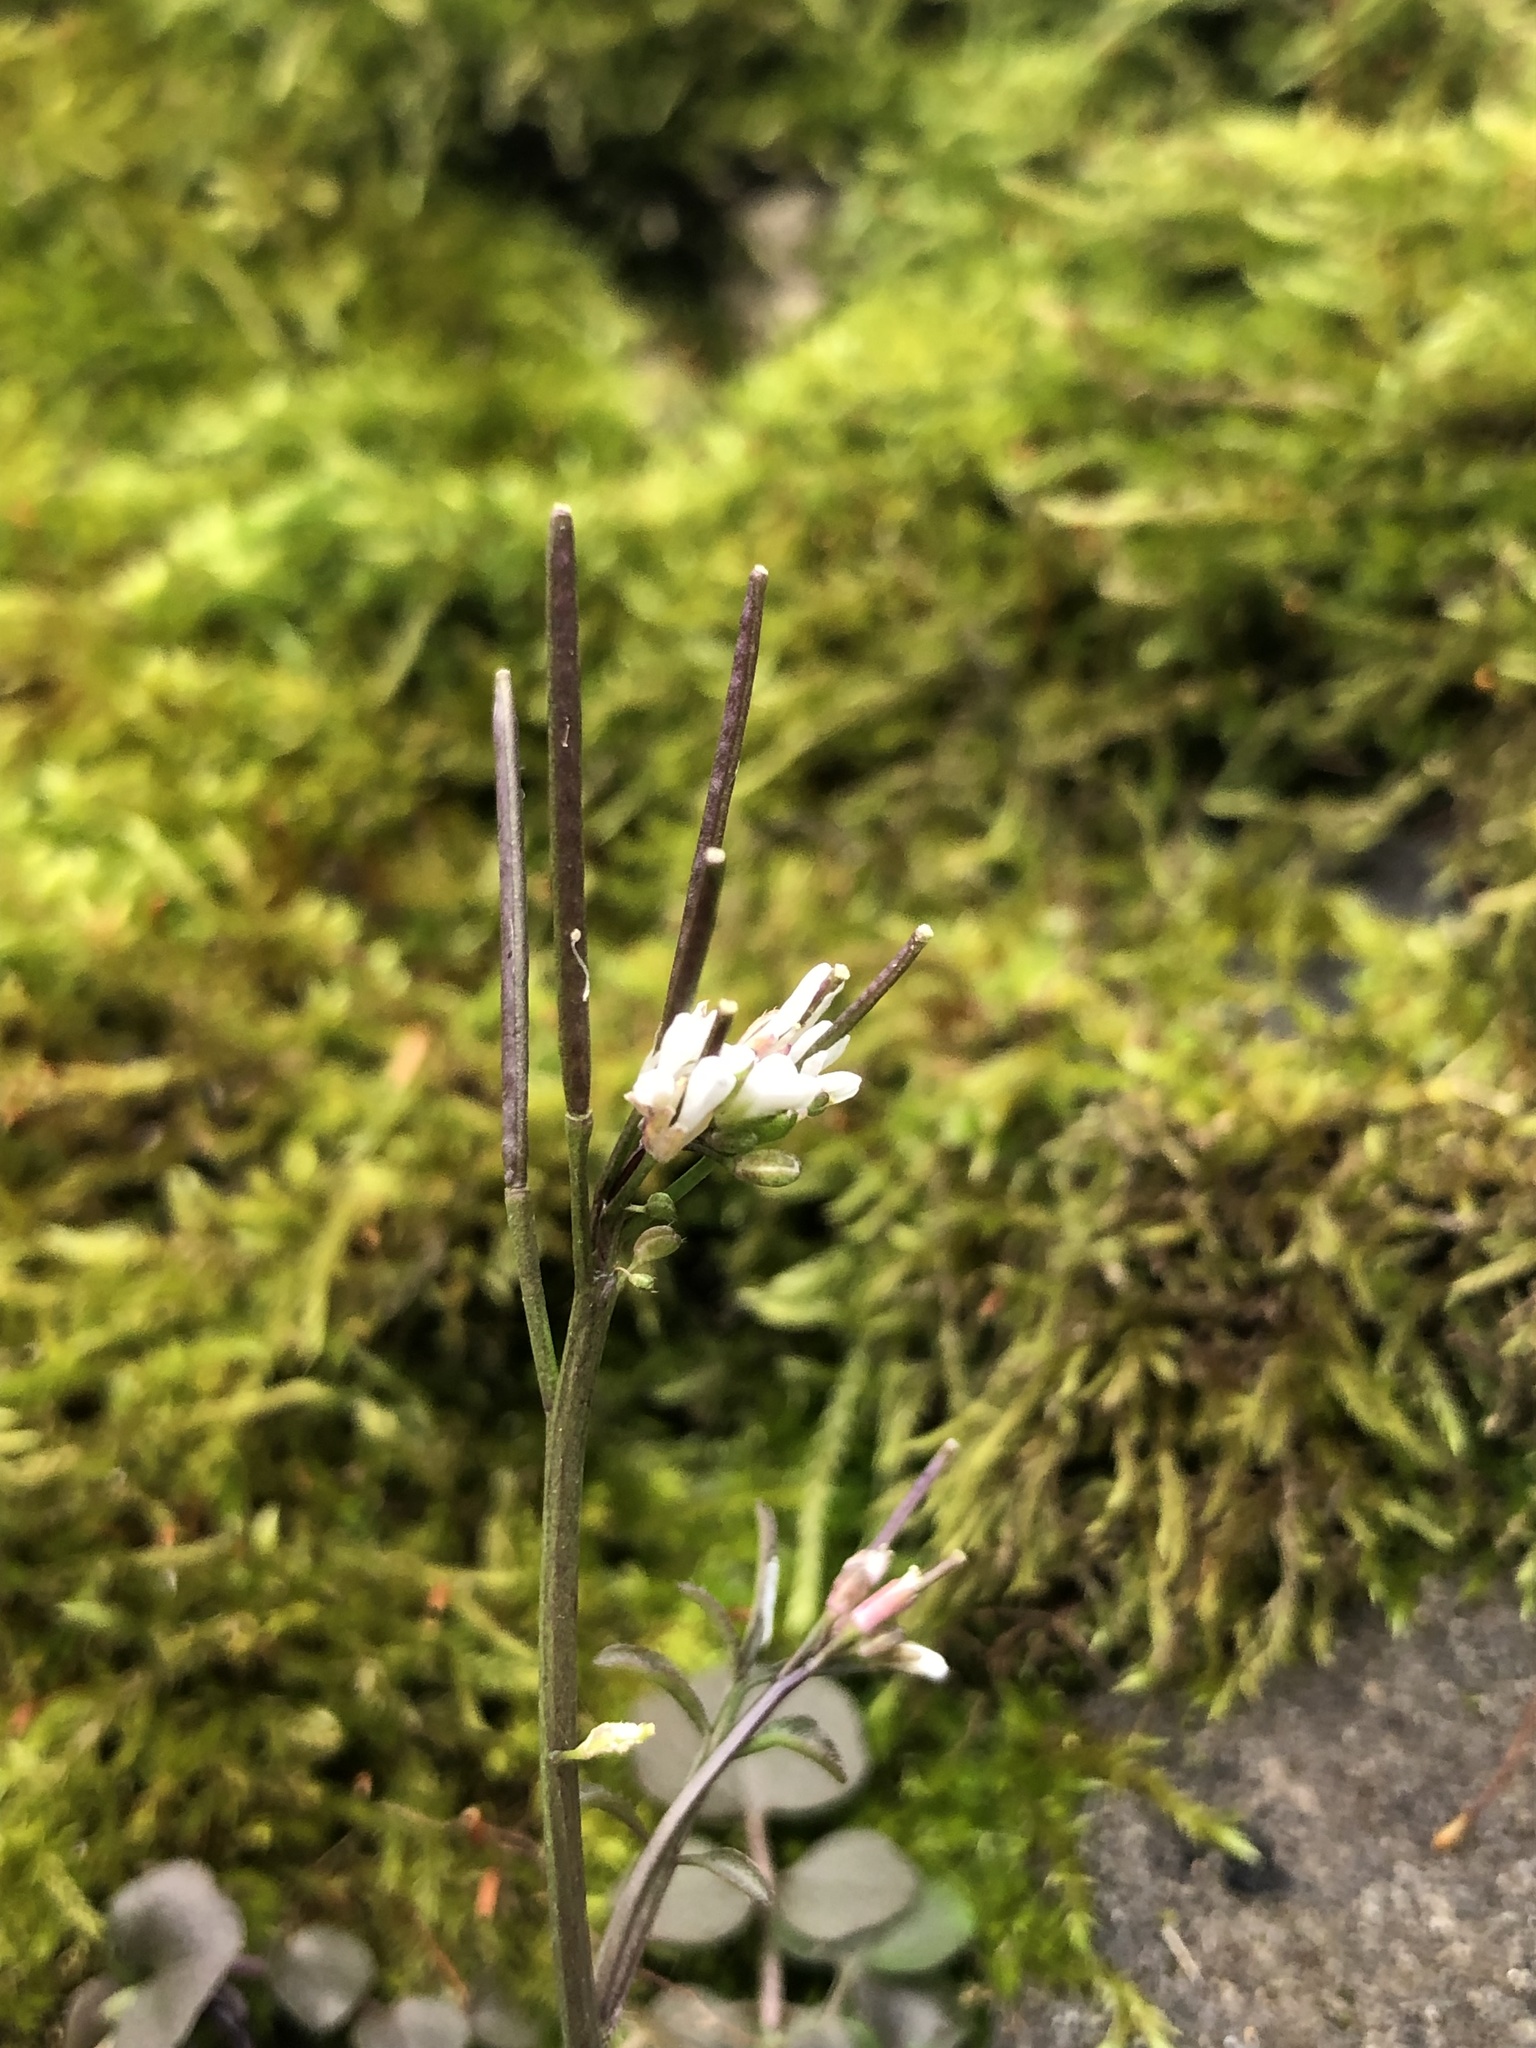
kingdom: Plantae
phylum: Tracheophyta
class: Magnoliopsida
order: Brassicales
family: Brassicaceae
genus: Cardamine
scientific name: Cardamine hirsuta
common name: Hairy bittercress
